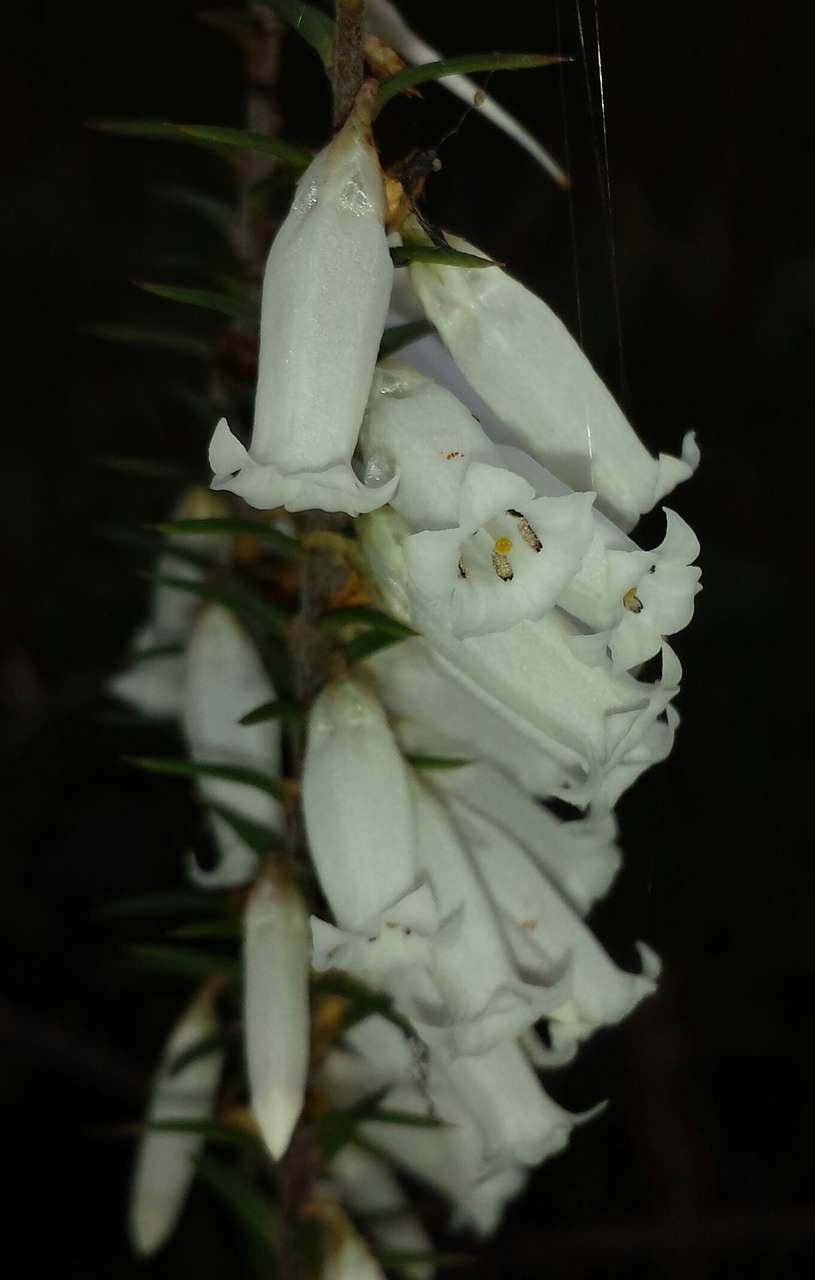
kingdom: Plantae
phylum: Tracheophyta
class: Magnoliopsida
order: Ericales
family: Ericaceae
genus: Epacris
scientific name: Epacris impressa
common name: Common-heath
